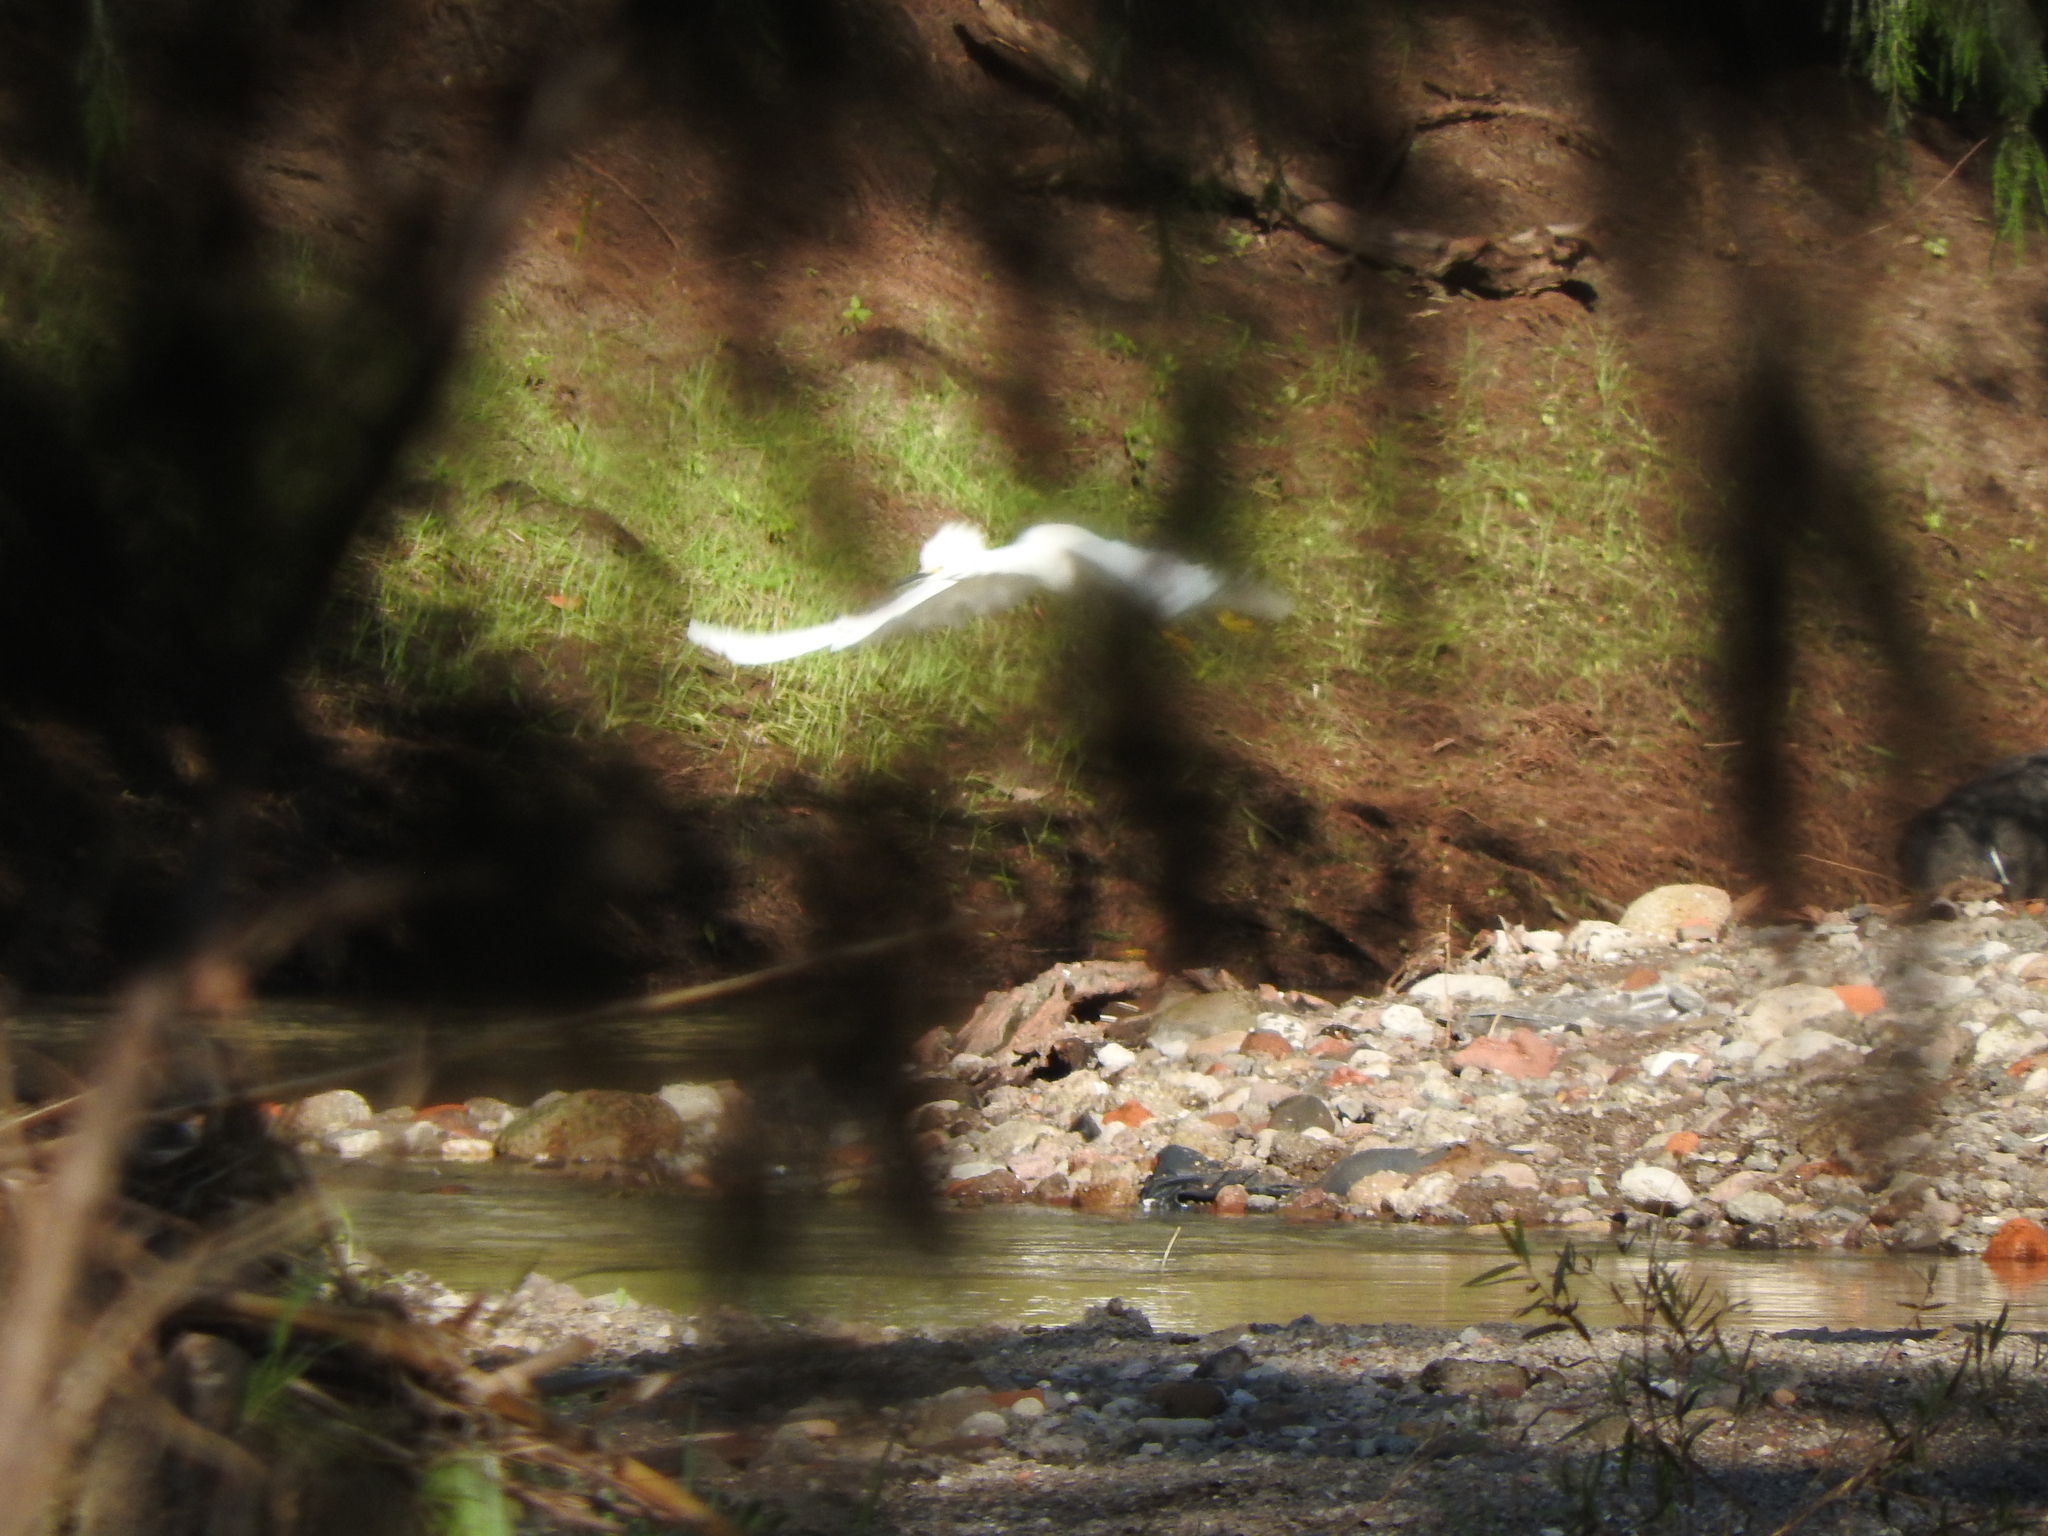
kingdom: Animalia
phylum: Chordata
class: Aves
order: Pelecaniformes
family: Ardeidae
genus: Egretta
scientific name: Egretta thula
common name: Snowy egret
